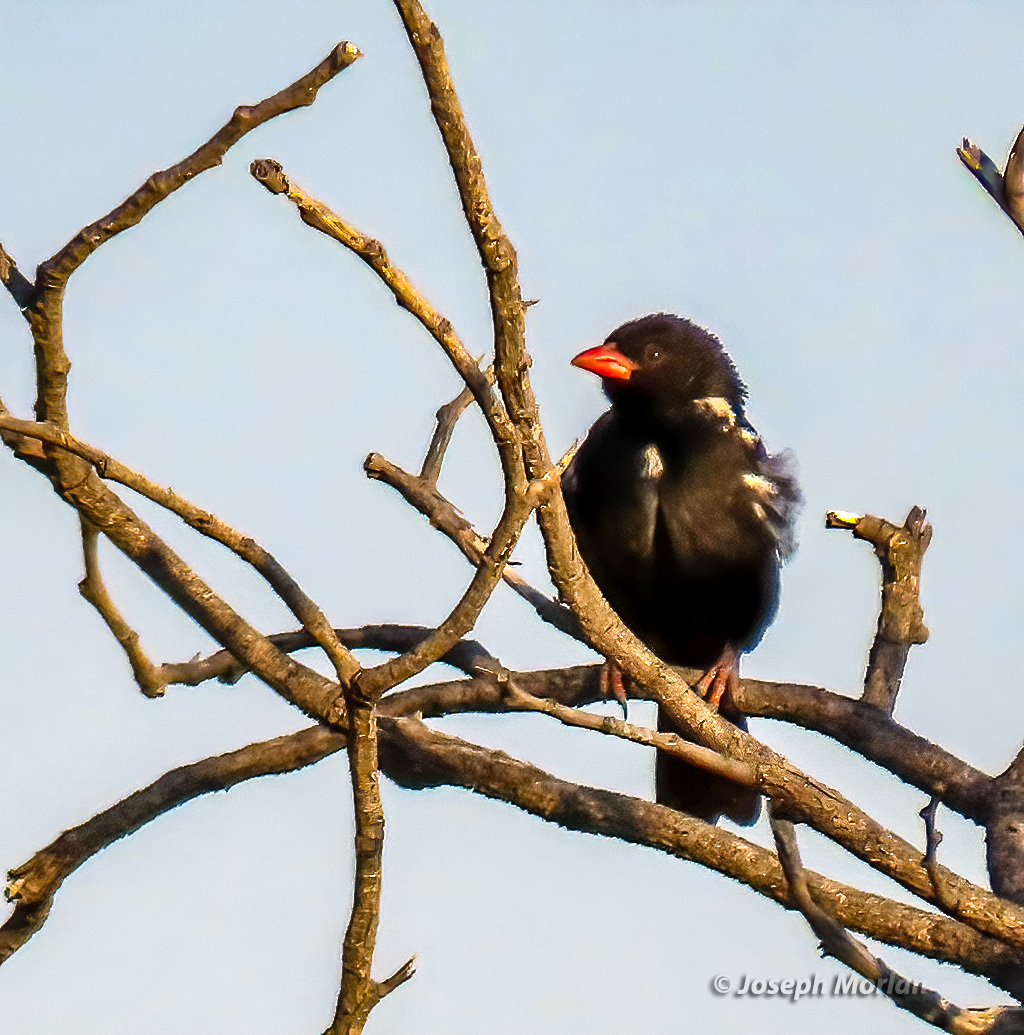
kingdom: Animalia
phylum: Chordata
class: Aves
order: Passeriformes
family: Ploceidae
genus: Bubalornis
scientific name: Bubalornis niger
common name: Red-billed buffalo weaver
